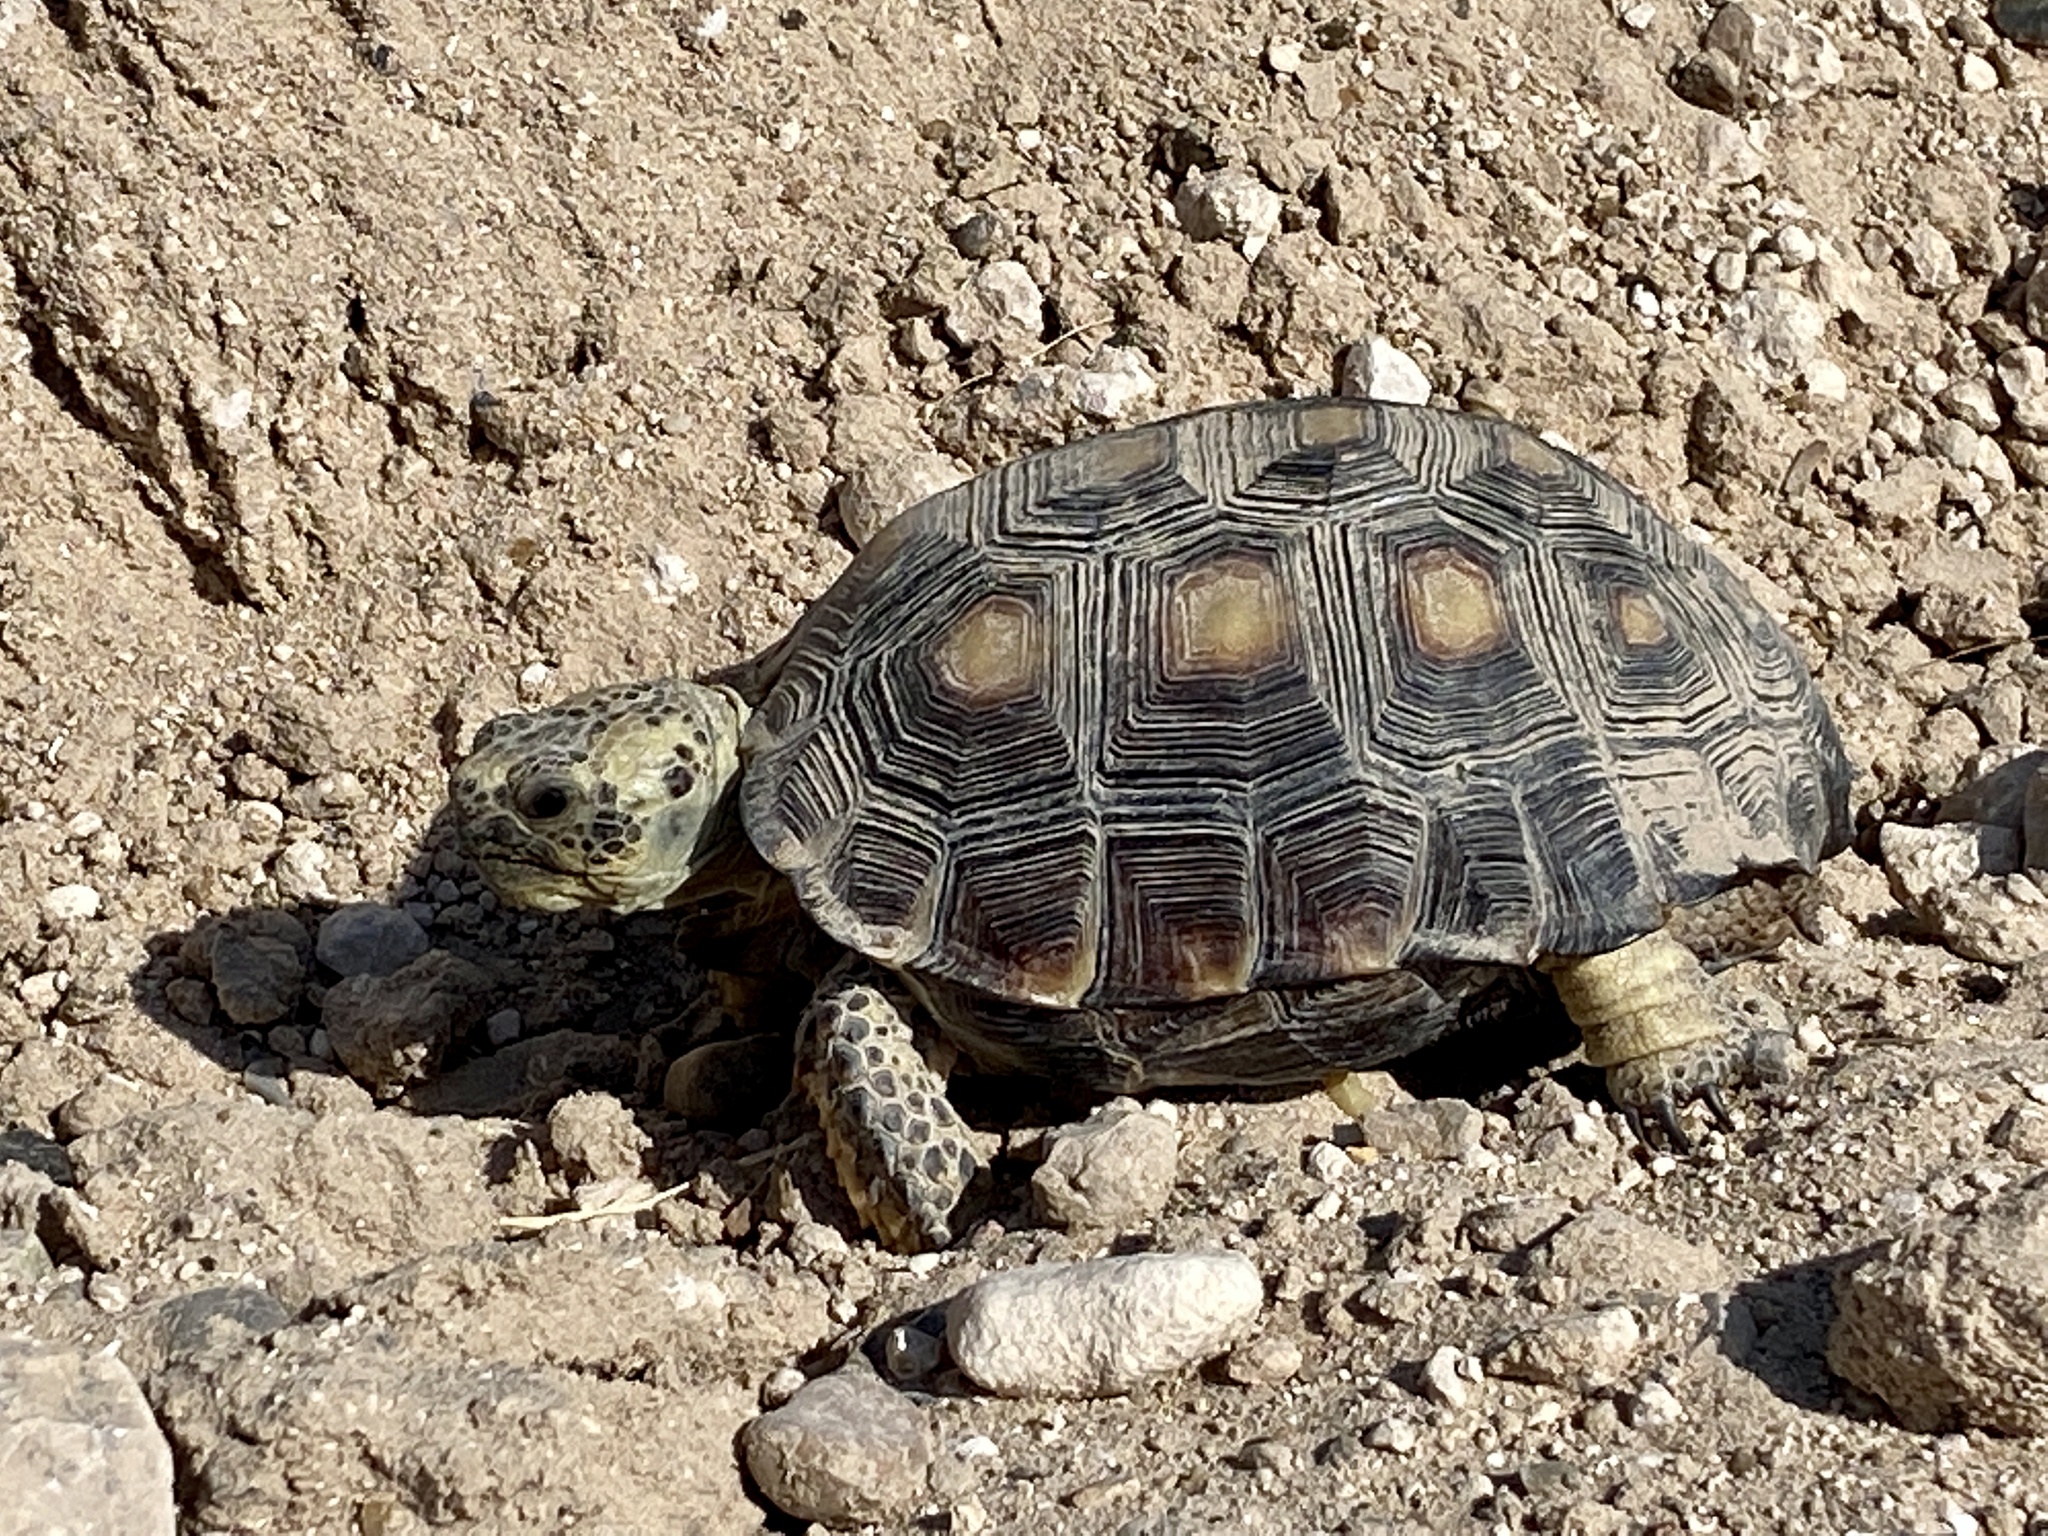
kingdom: Animalia
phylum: Chordata
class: Testudines
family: Testudinidae
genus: Gopherus
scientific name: Gopherus berlandieri
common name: Texas (gopher )tortoise
